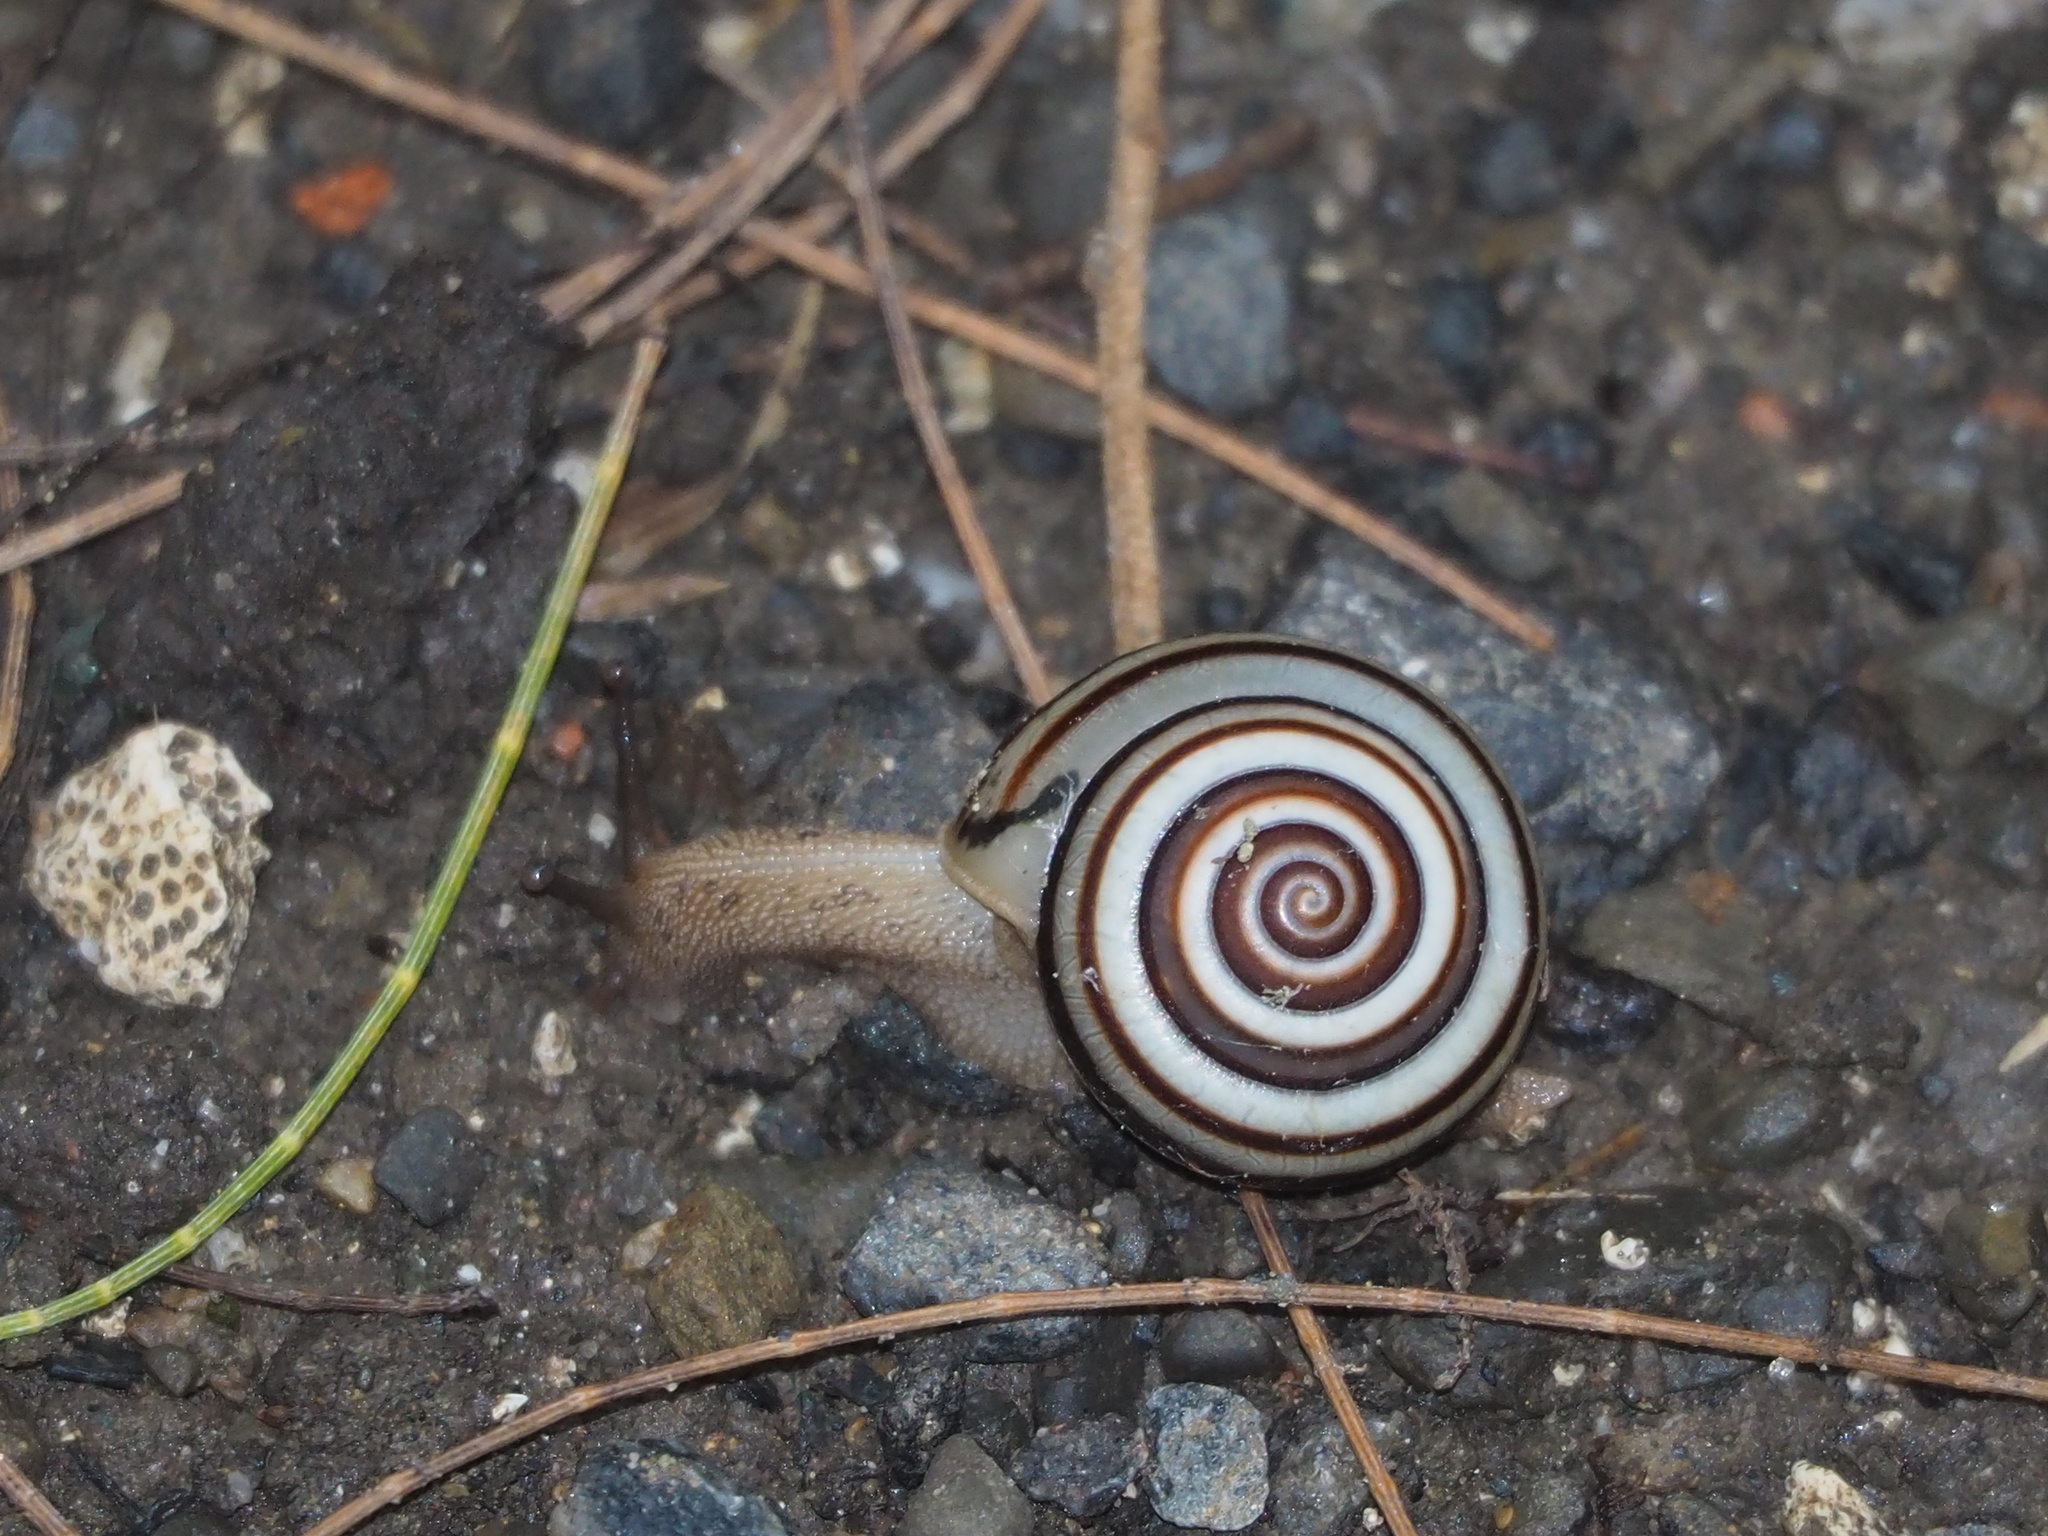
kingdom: Animalia
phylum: Mollusca
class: Gastropoda
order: Stylommatophora
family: Camaenidae
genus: Pancala
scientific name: Pancala batanica
